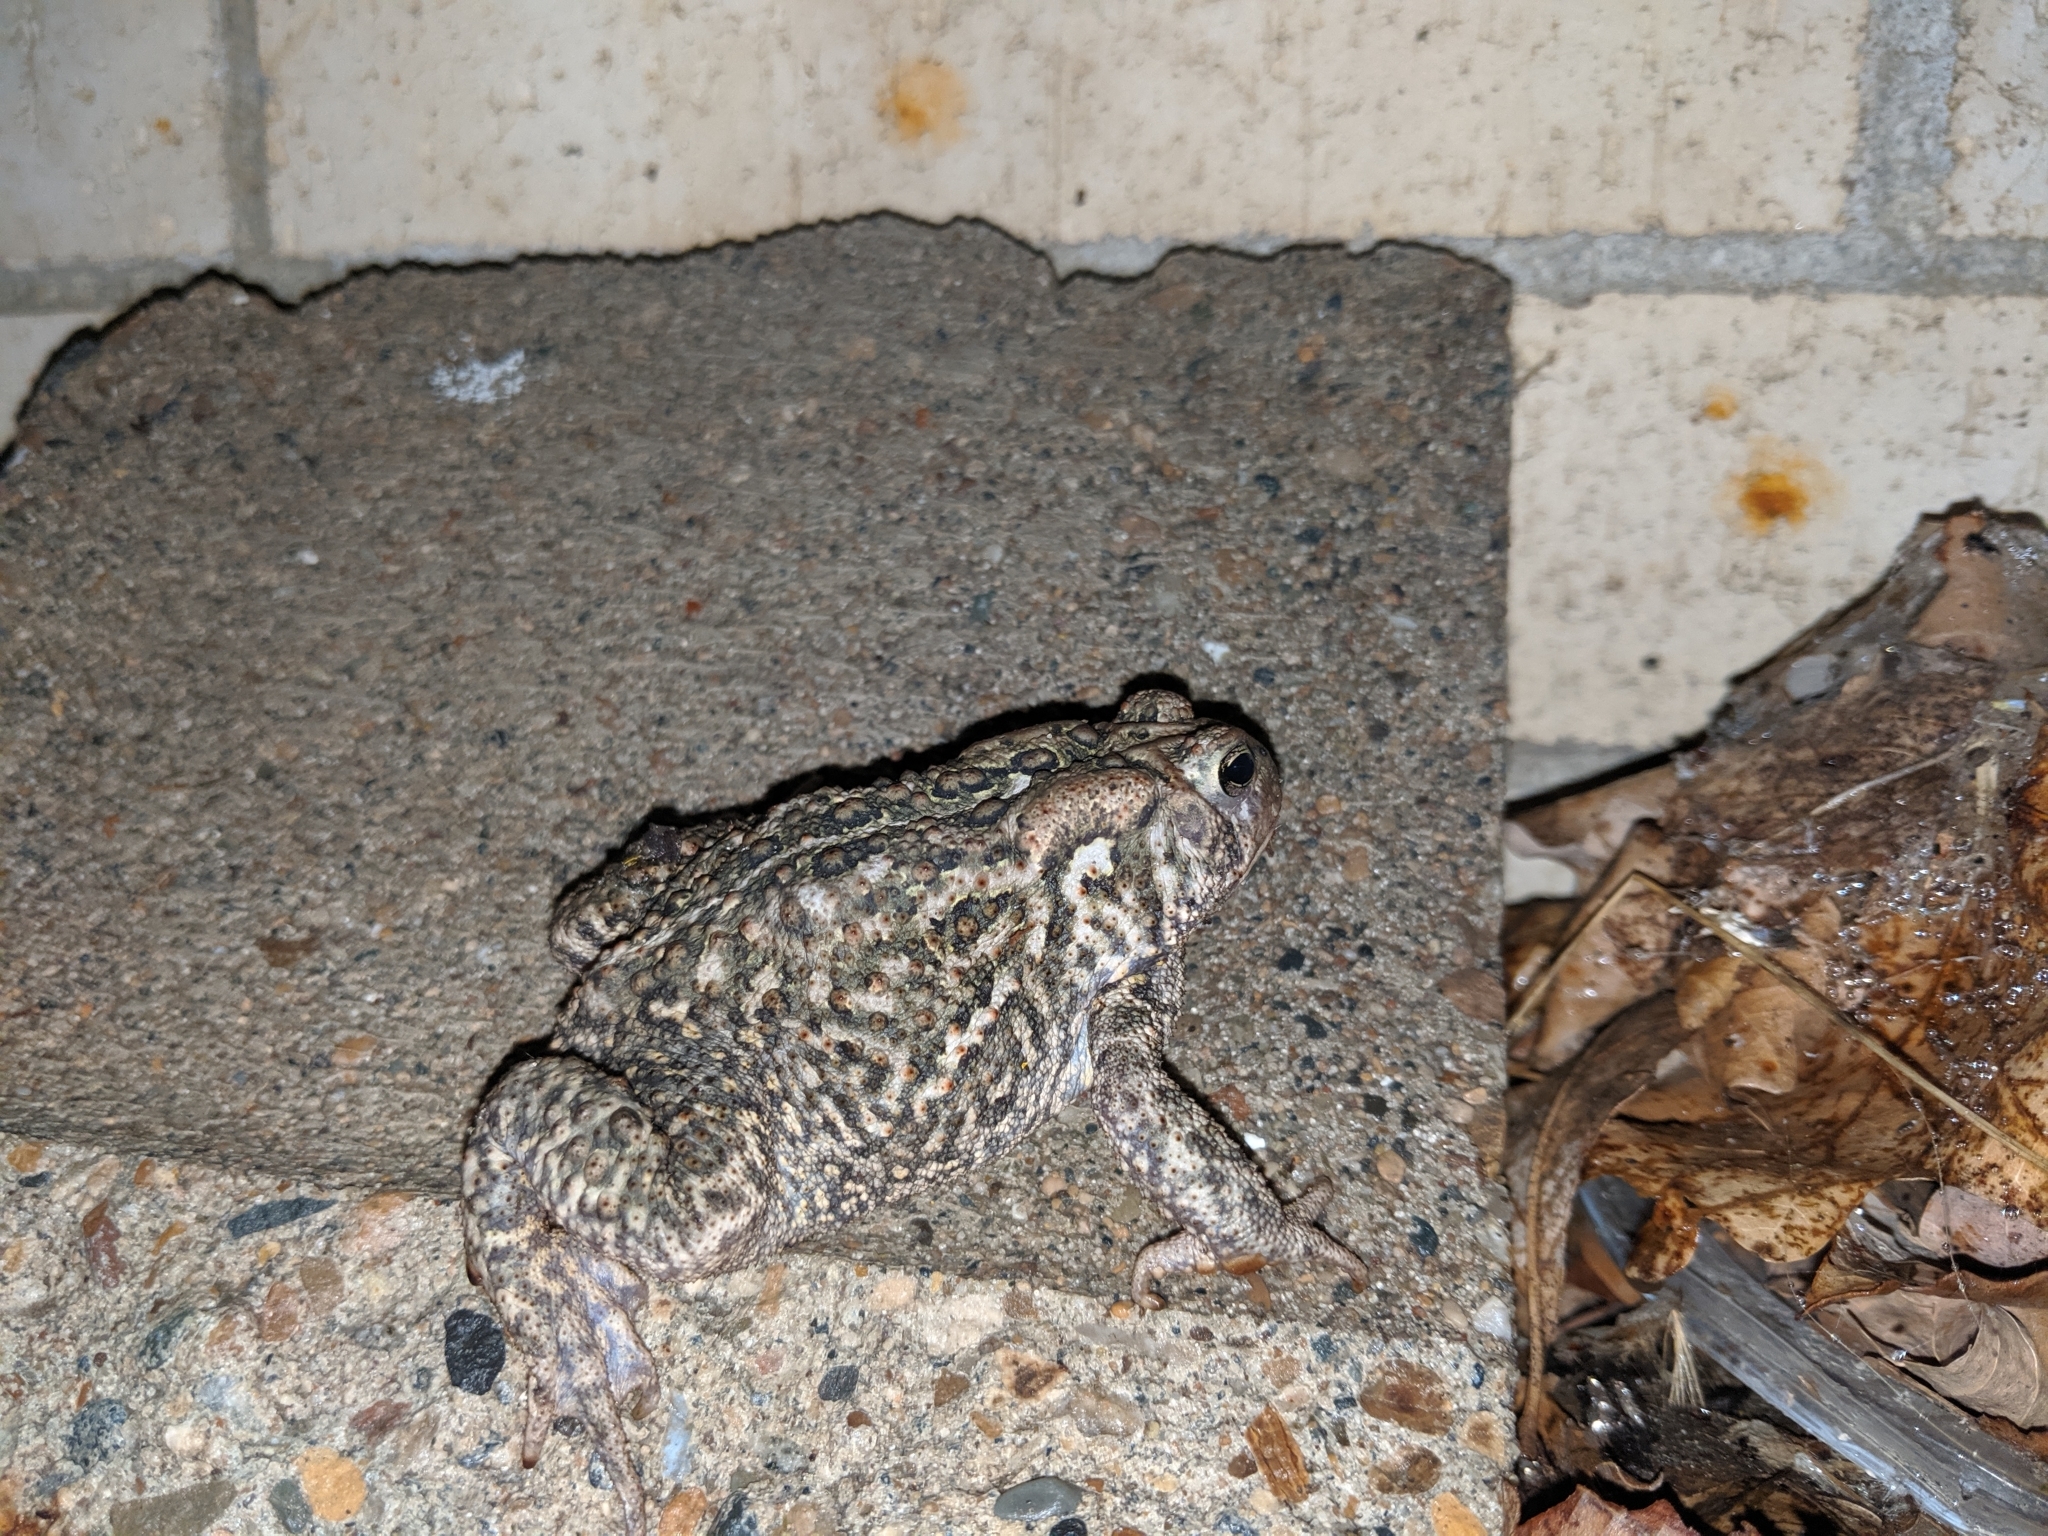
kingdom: Animalia
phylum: Chordata
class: Amphibia
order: Anura
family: Bufonidae
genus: Anaxyrus
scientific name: Anaxyrus americanus
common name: American toad
